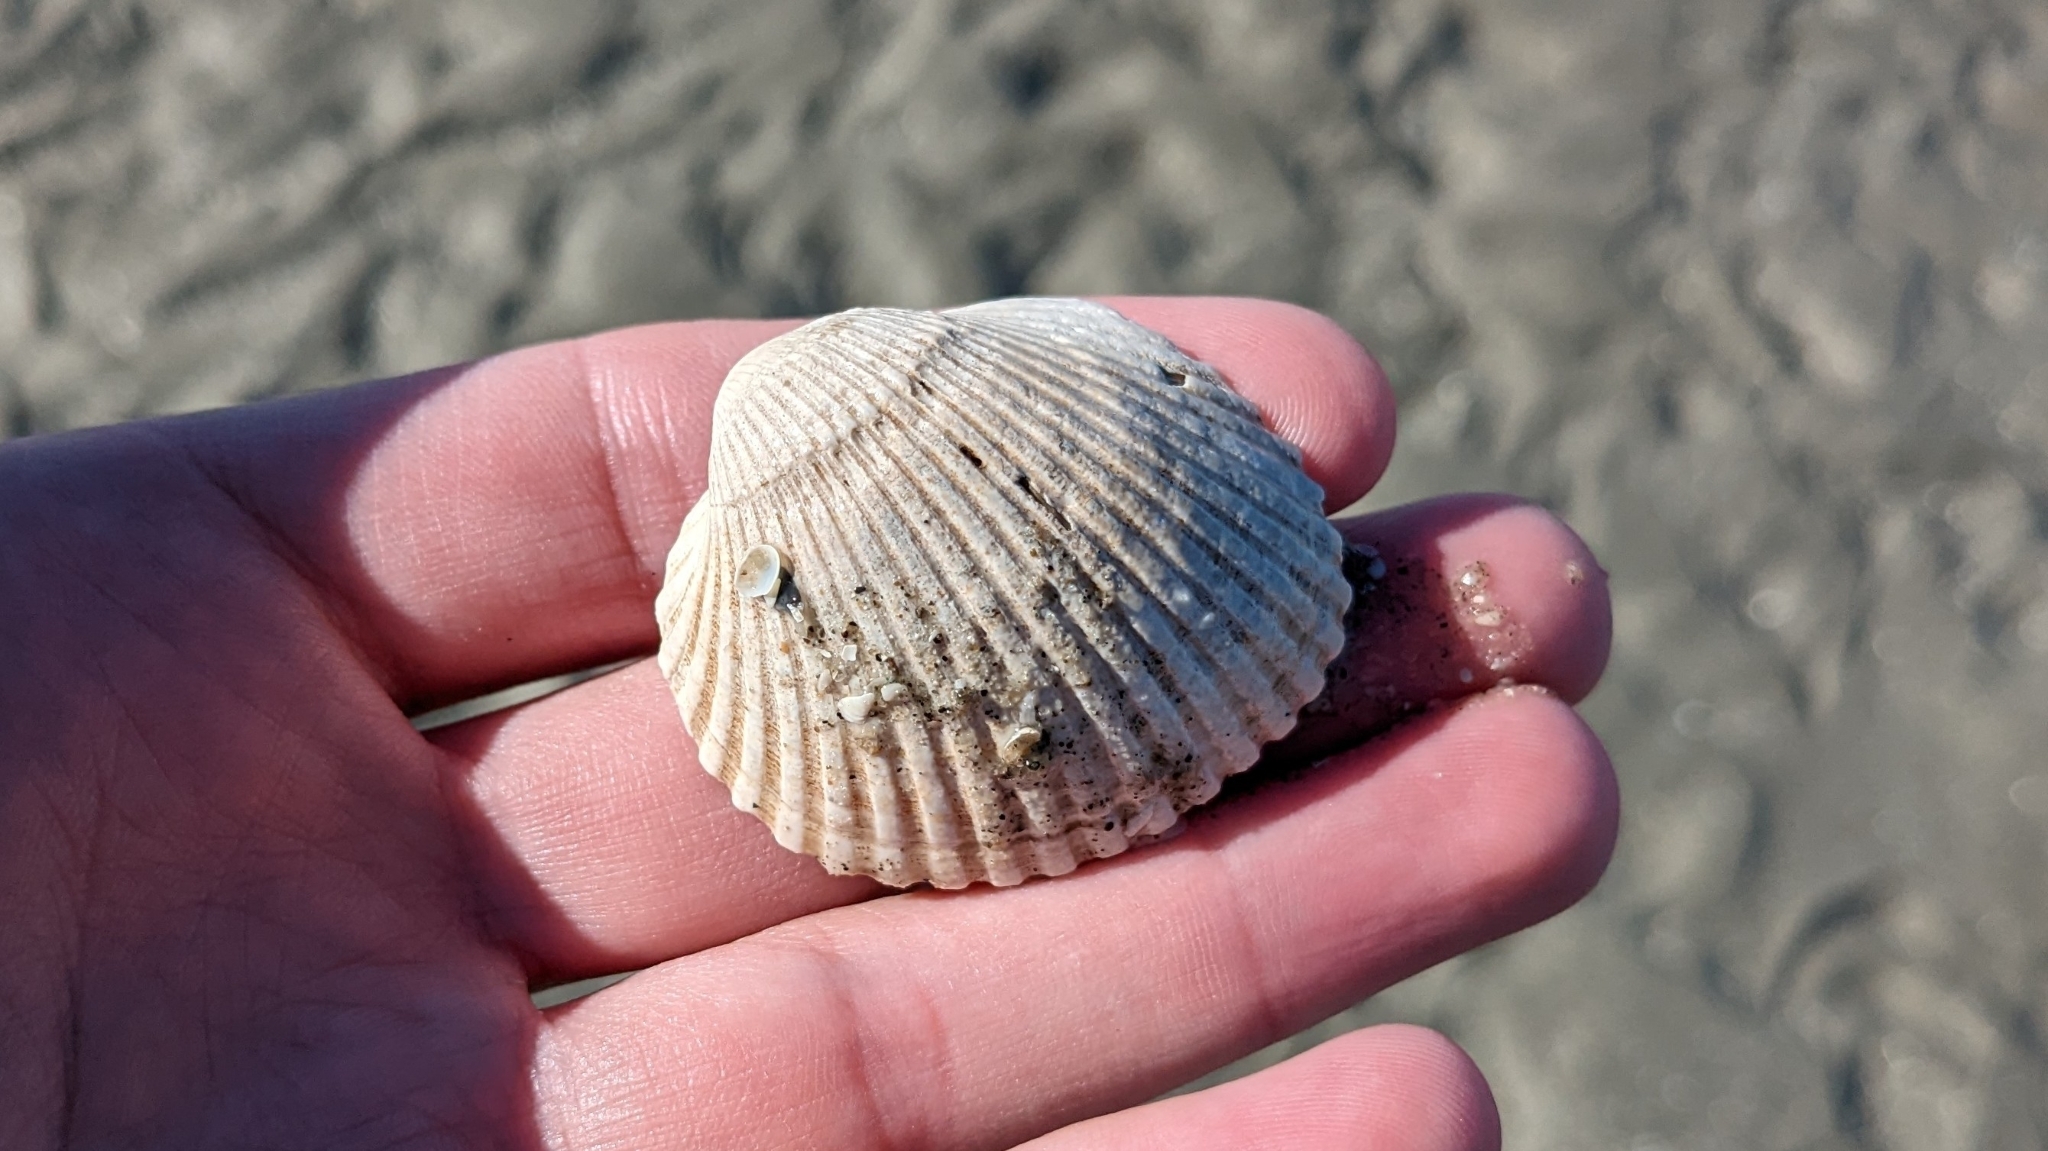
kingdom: Animalia
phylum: Mollusca
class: Bivalvia
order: Arcida
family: Arcidae
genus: Lunarca
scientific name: Lunarca ovalis
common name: Blood ark
